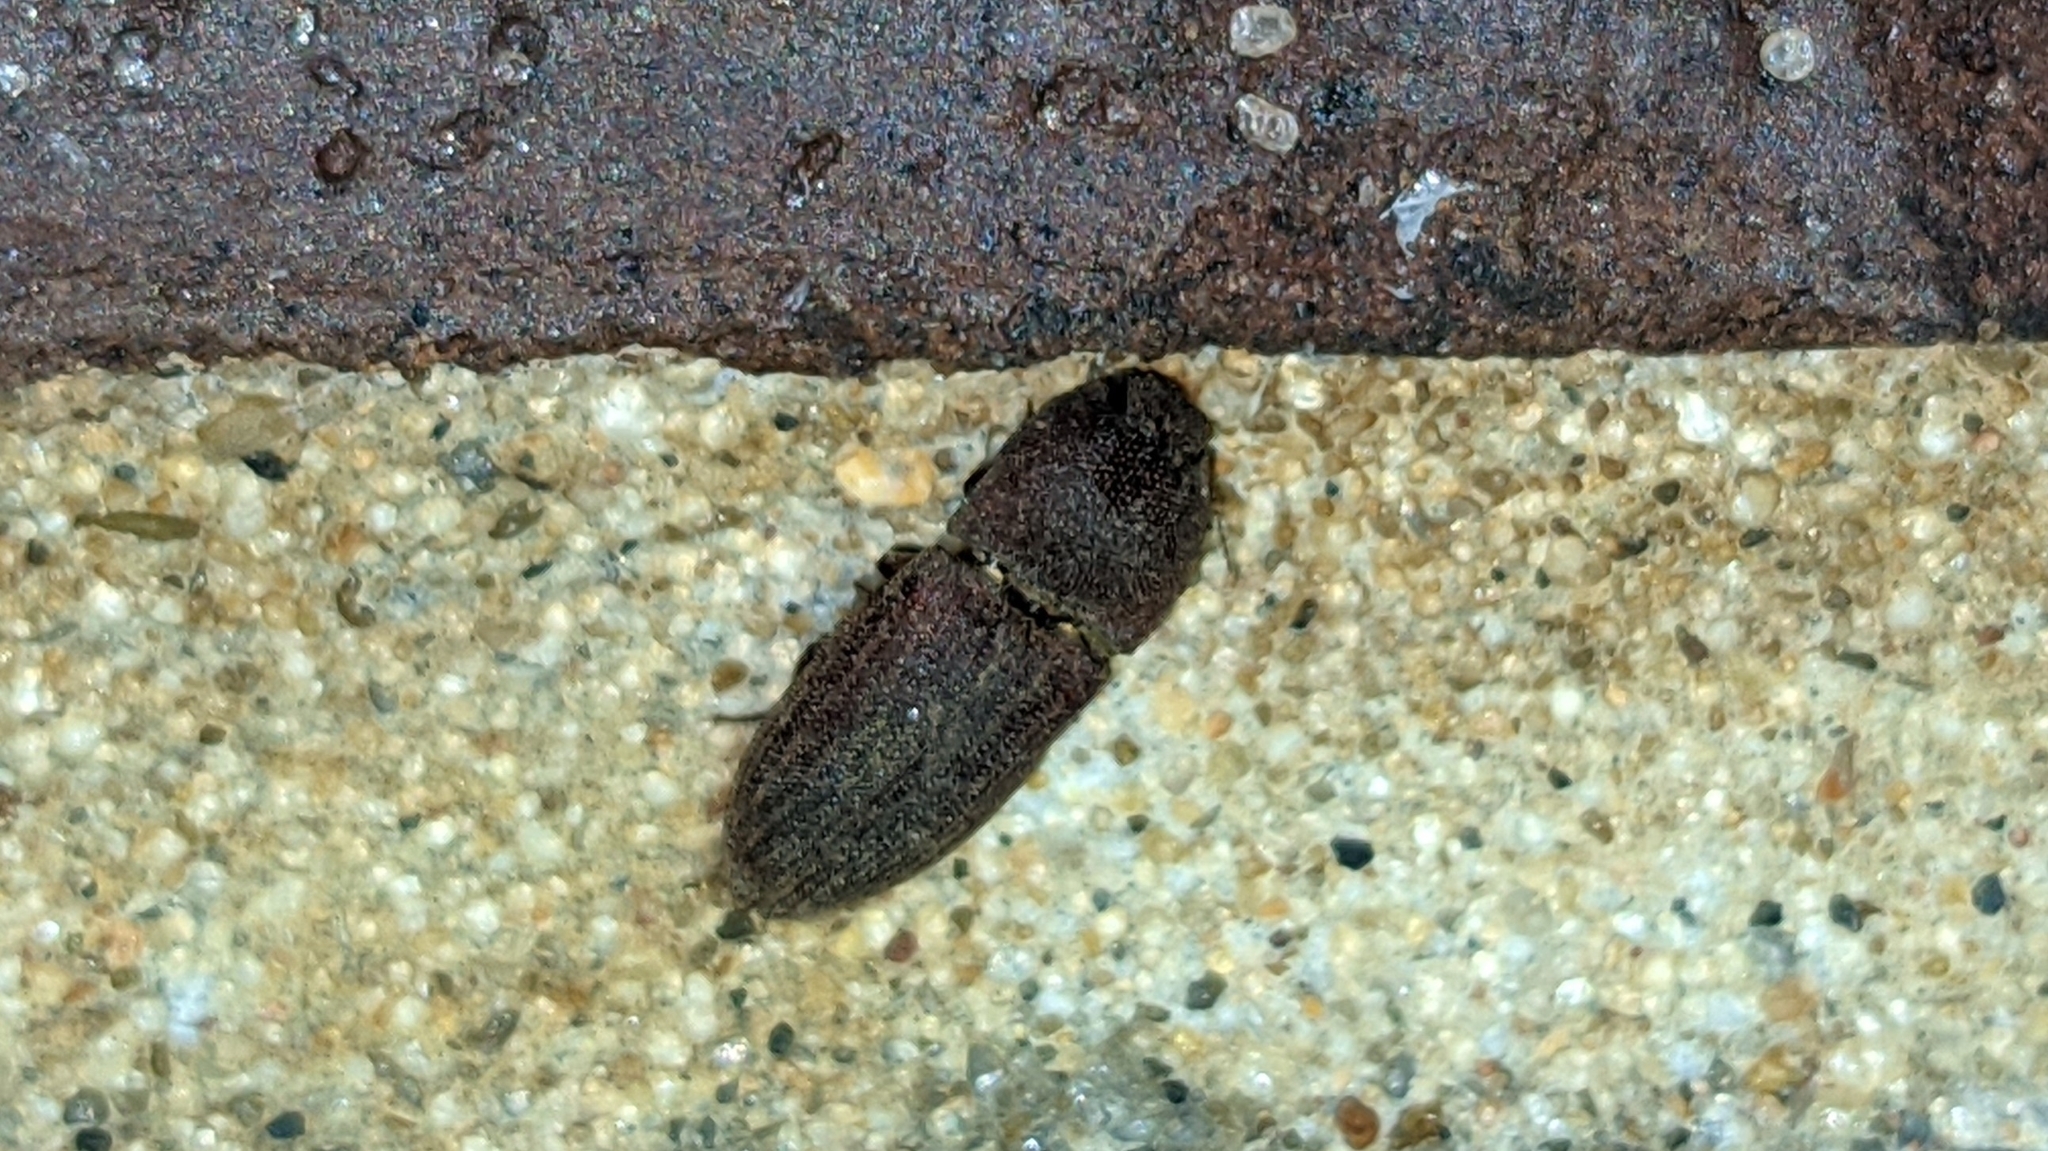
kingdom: Animalia
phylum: Arthropoda
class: Insecta
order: Coleoptera
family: Elateridae
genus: Agrypnus
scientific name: Agrypnus rectangularis
